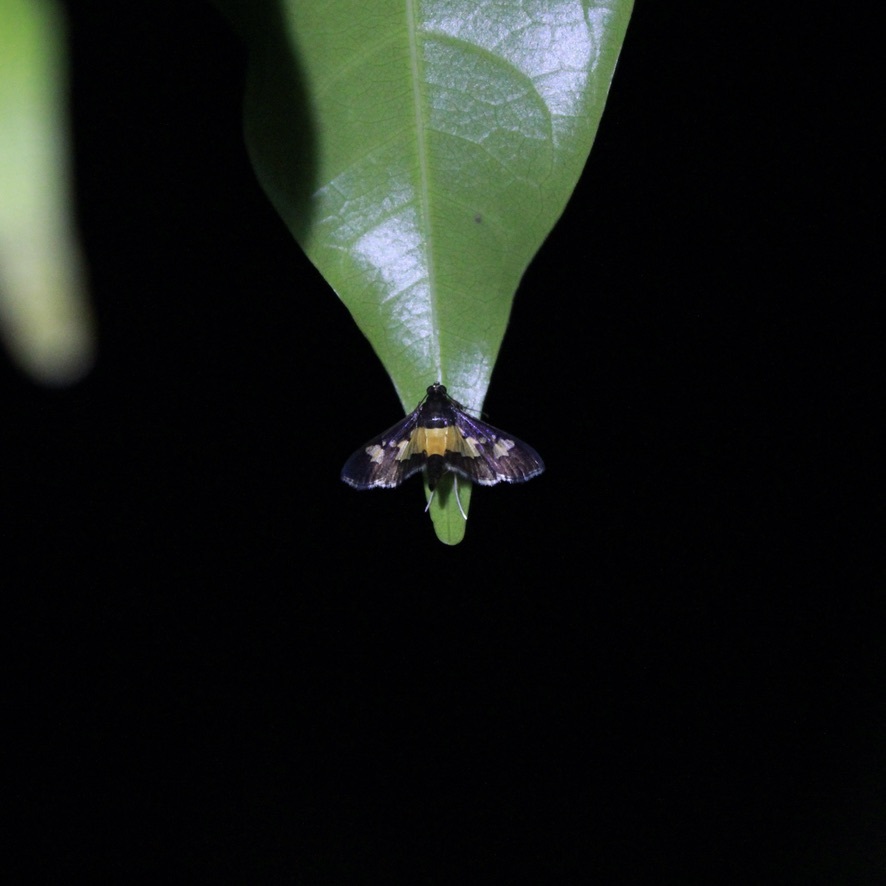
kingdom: Animalia
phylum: Arthropoda
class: Insecta
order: Lepidoptera
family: Crambidae
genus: Salbia
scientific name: Salbia zena
